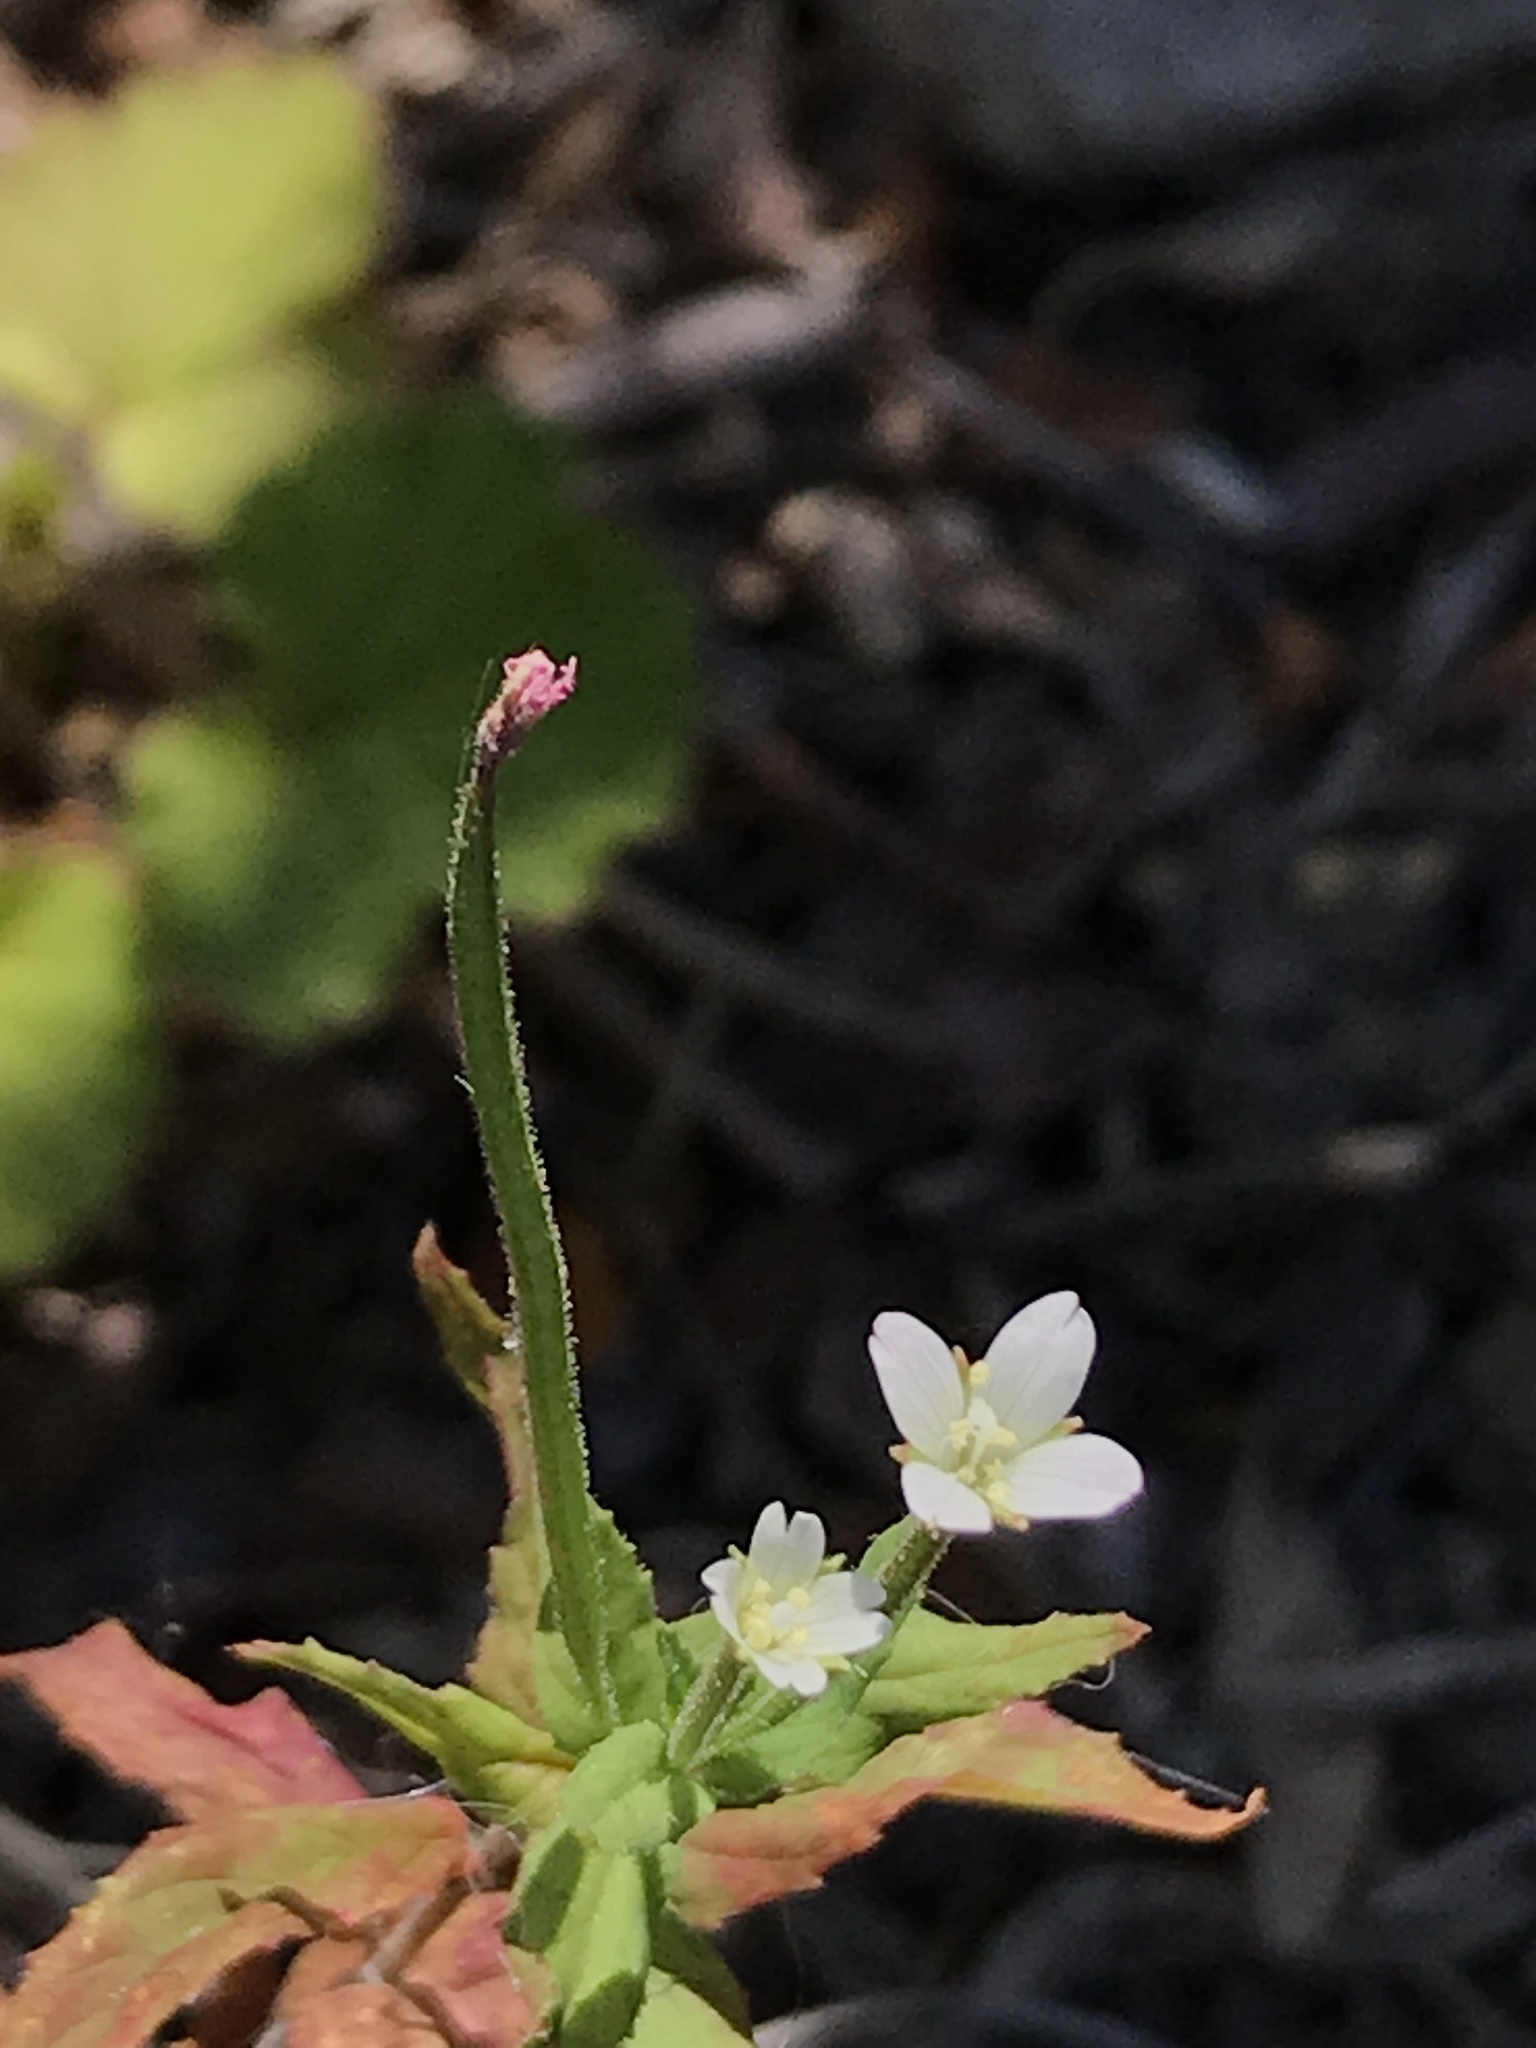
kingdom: Plantae
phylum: Tracheophyta
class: Magnoliopsida
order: Myrtales
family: Onagraceae
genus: Epilobium
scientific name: Epilobium ciliatum
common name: American willowherb
